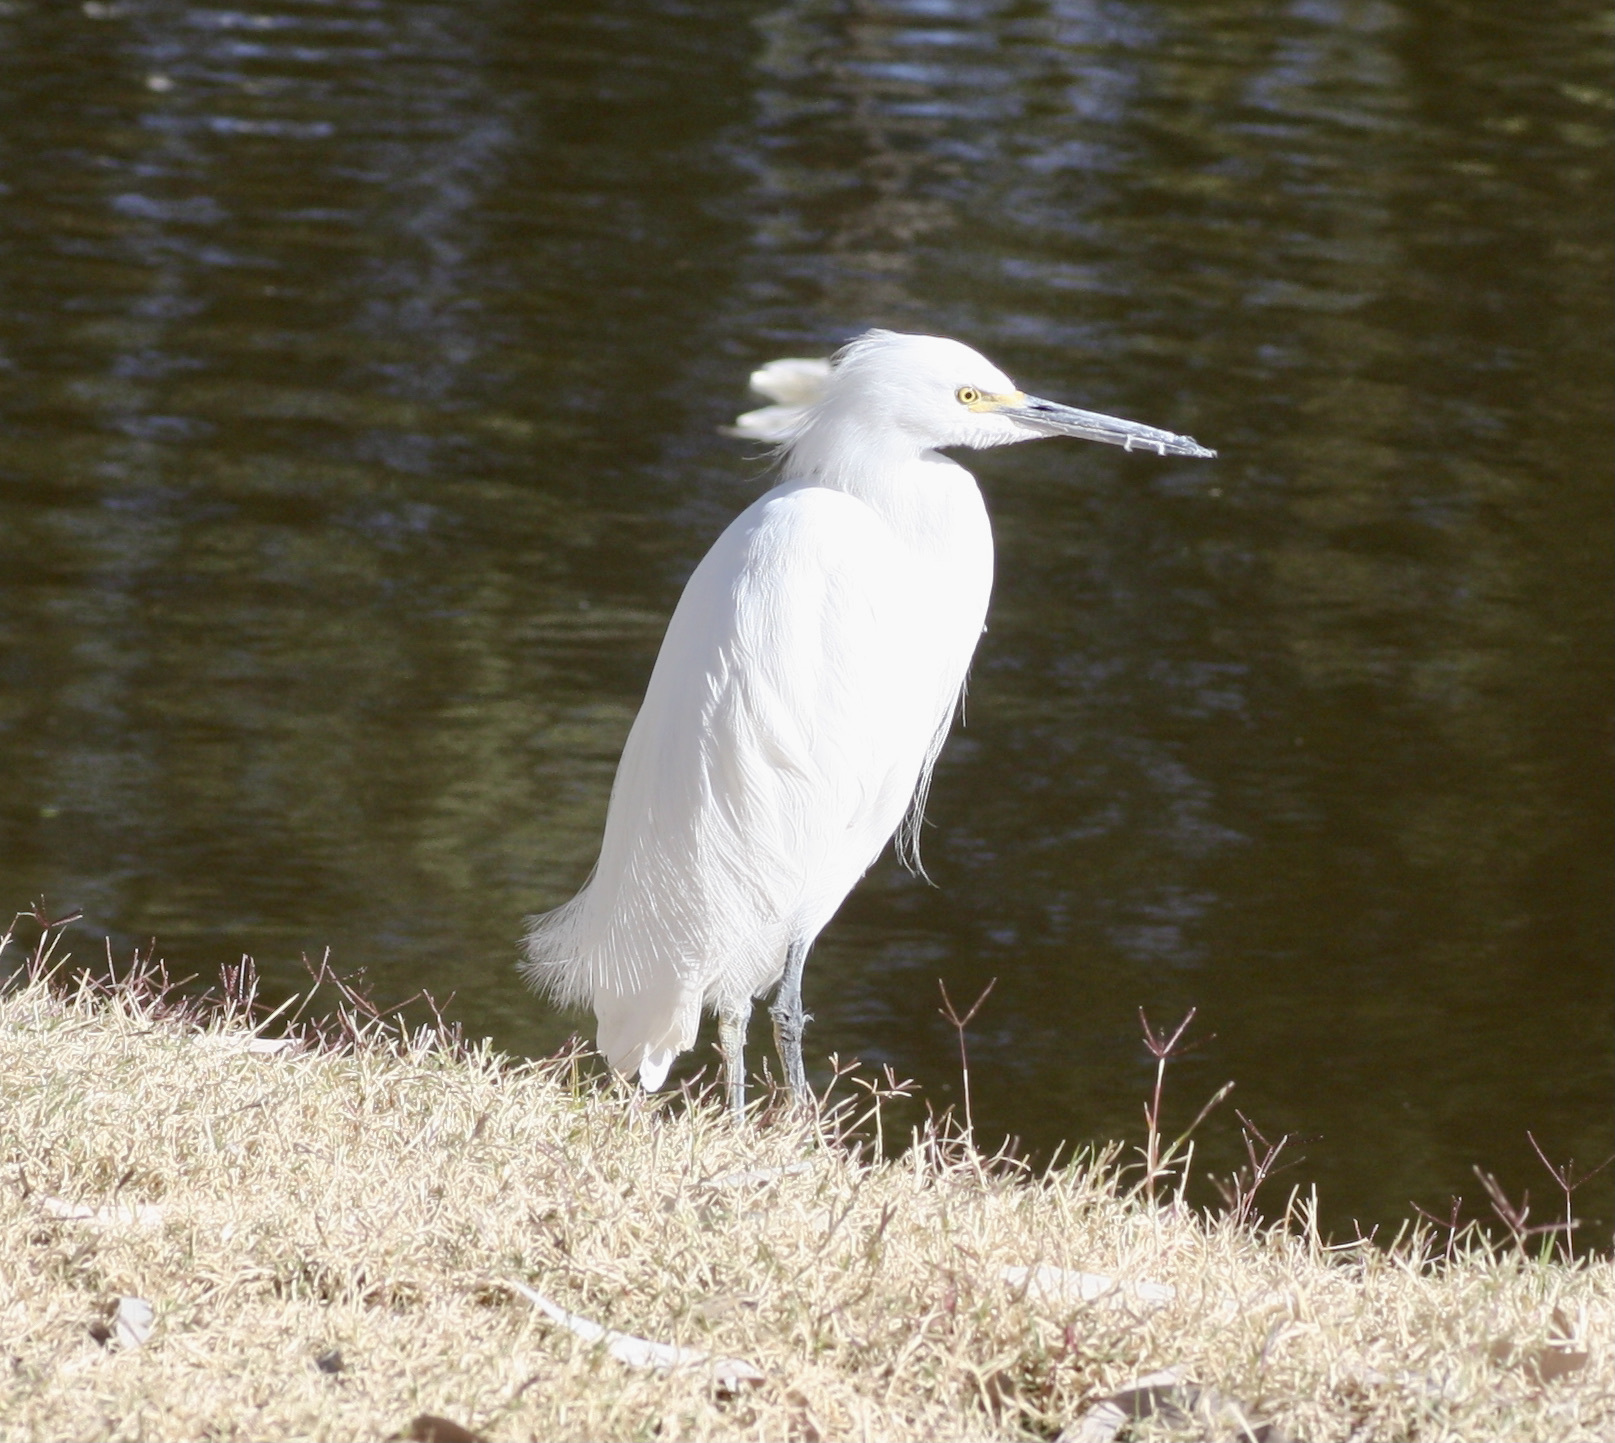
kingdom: Animalia
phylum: Chordata
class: Aves
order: Pelecaniformes
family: Ardeidae
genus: Egretta
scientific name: Egretta thula
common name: Snowy egret
